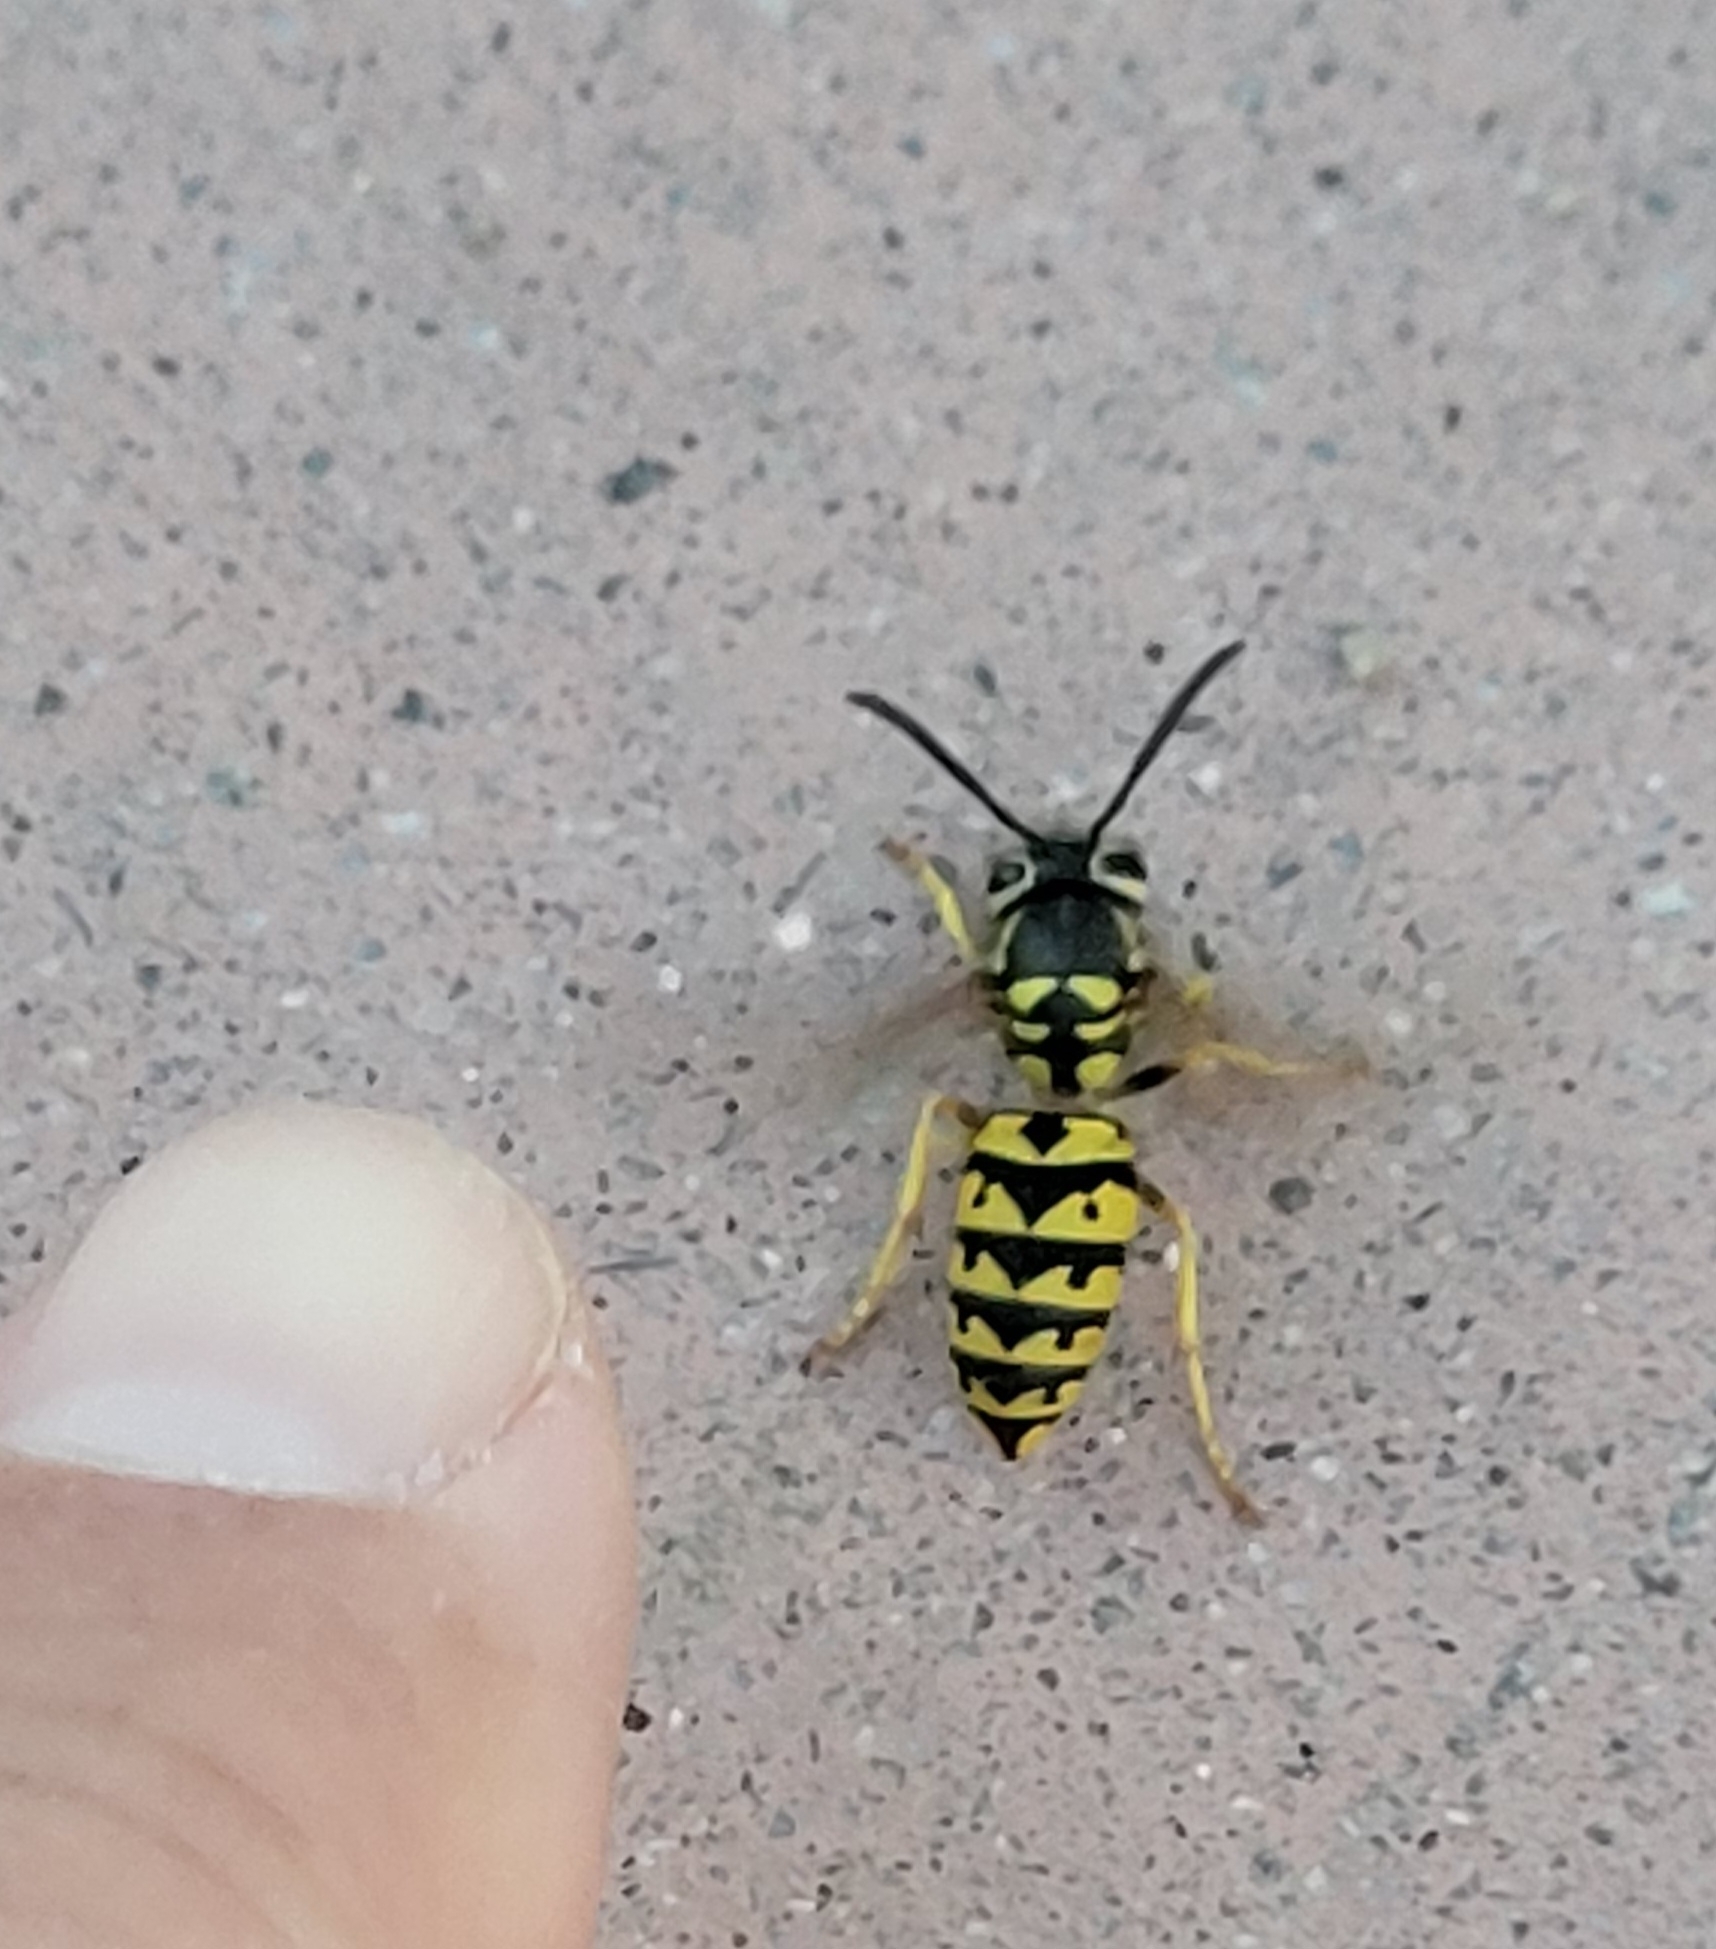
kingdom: Animalia
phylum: Arthropoda
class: Insecta
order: Hymenoptera
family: Vespidae
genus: Vespula
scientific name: Vespula pensylvanica
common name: Western yellowjacket
